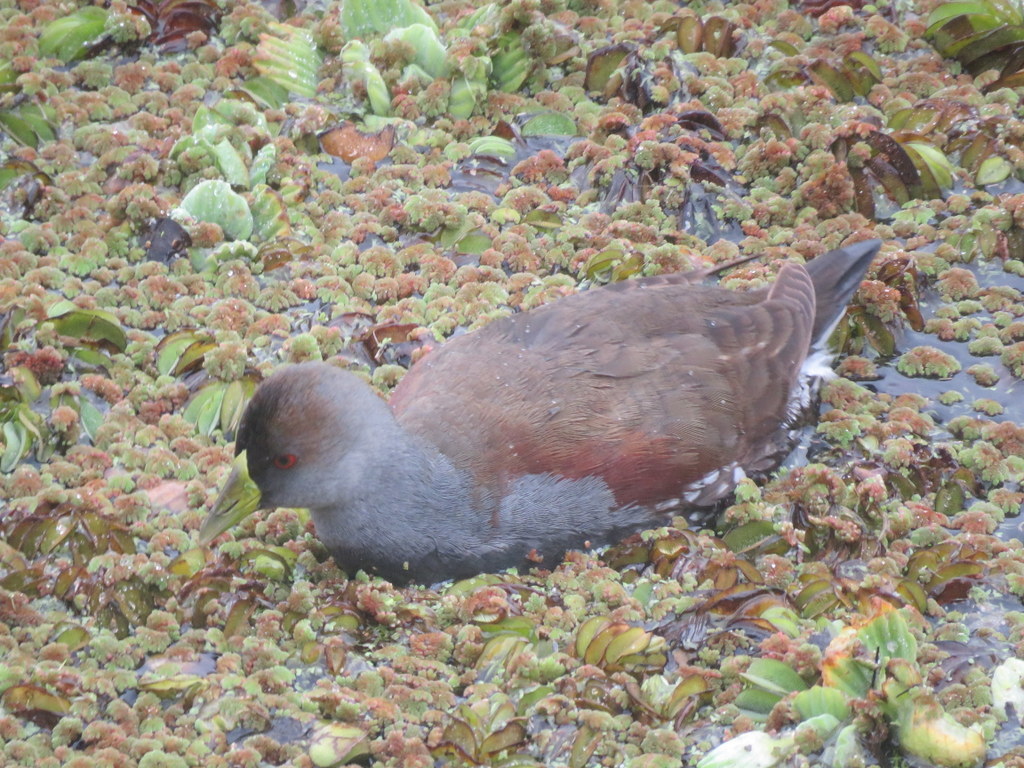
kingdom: Animalia
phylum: Chordata
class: Aves
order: Gruiformes
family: Rallidae
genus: Gallinula
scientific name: Gallinula melanops
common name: Spot-flanked gallinule
